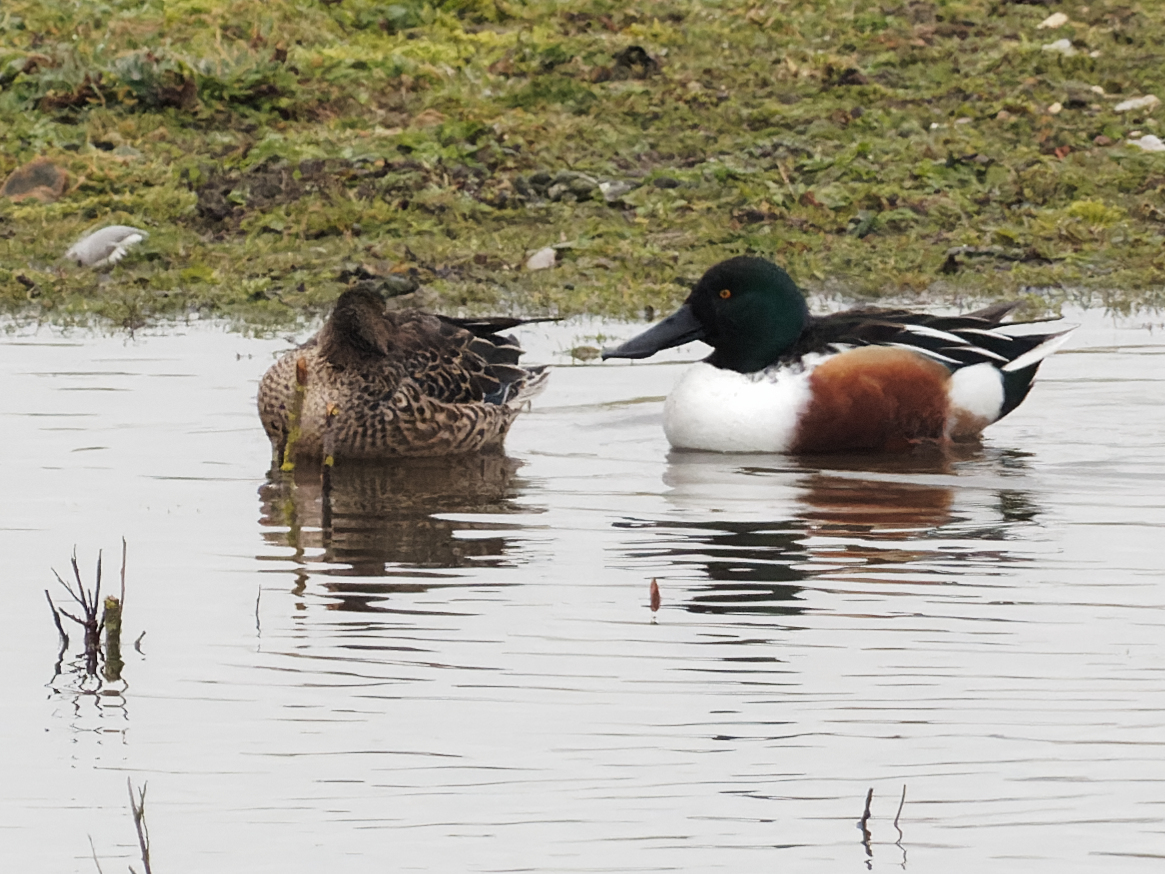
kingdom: Animalia
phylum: Chordata
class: Aves
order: Anseriformes
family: Anatidae
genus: Spatula
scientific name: Spatula clypeata
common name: Northern shoveler
